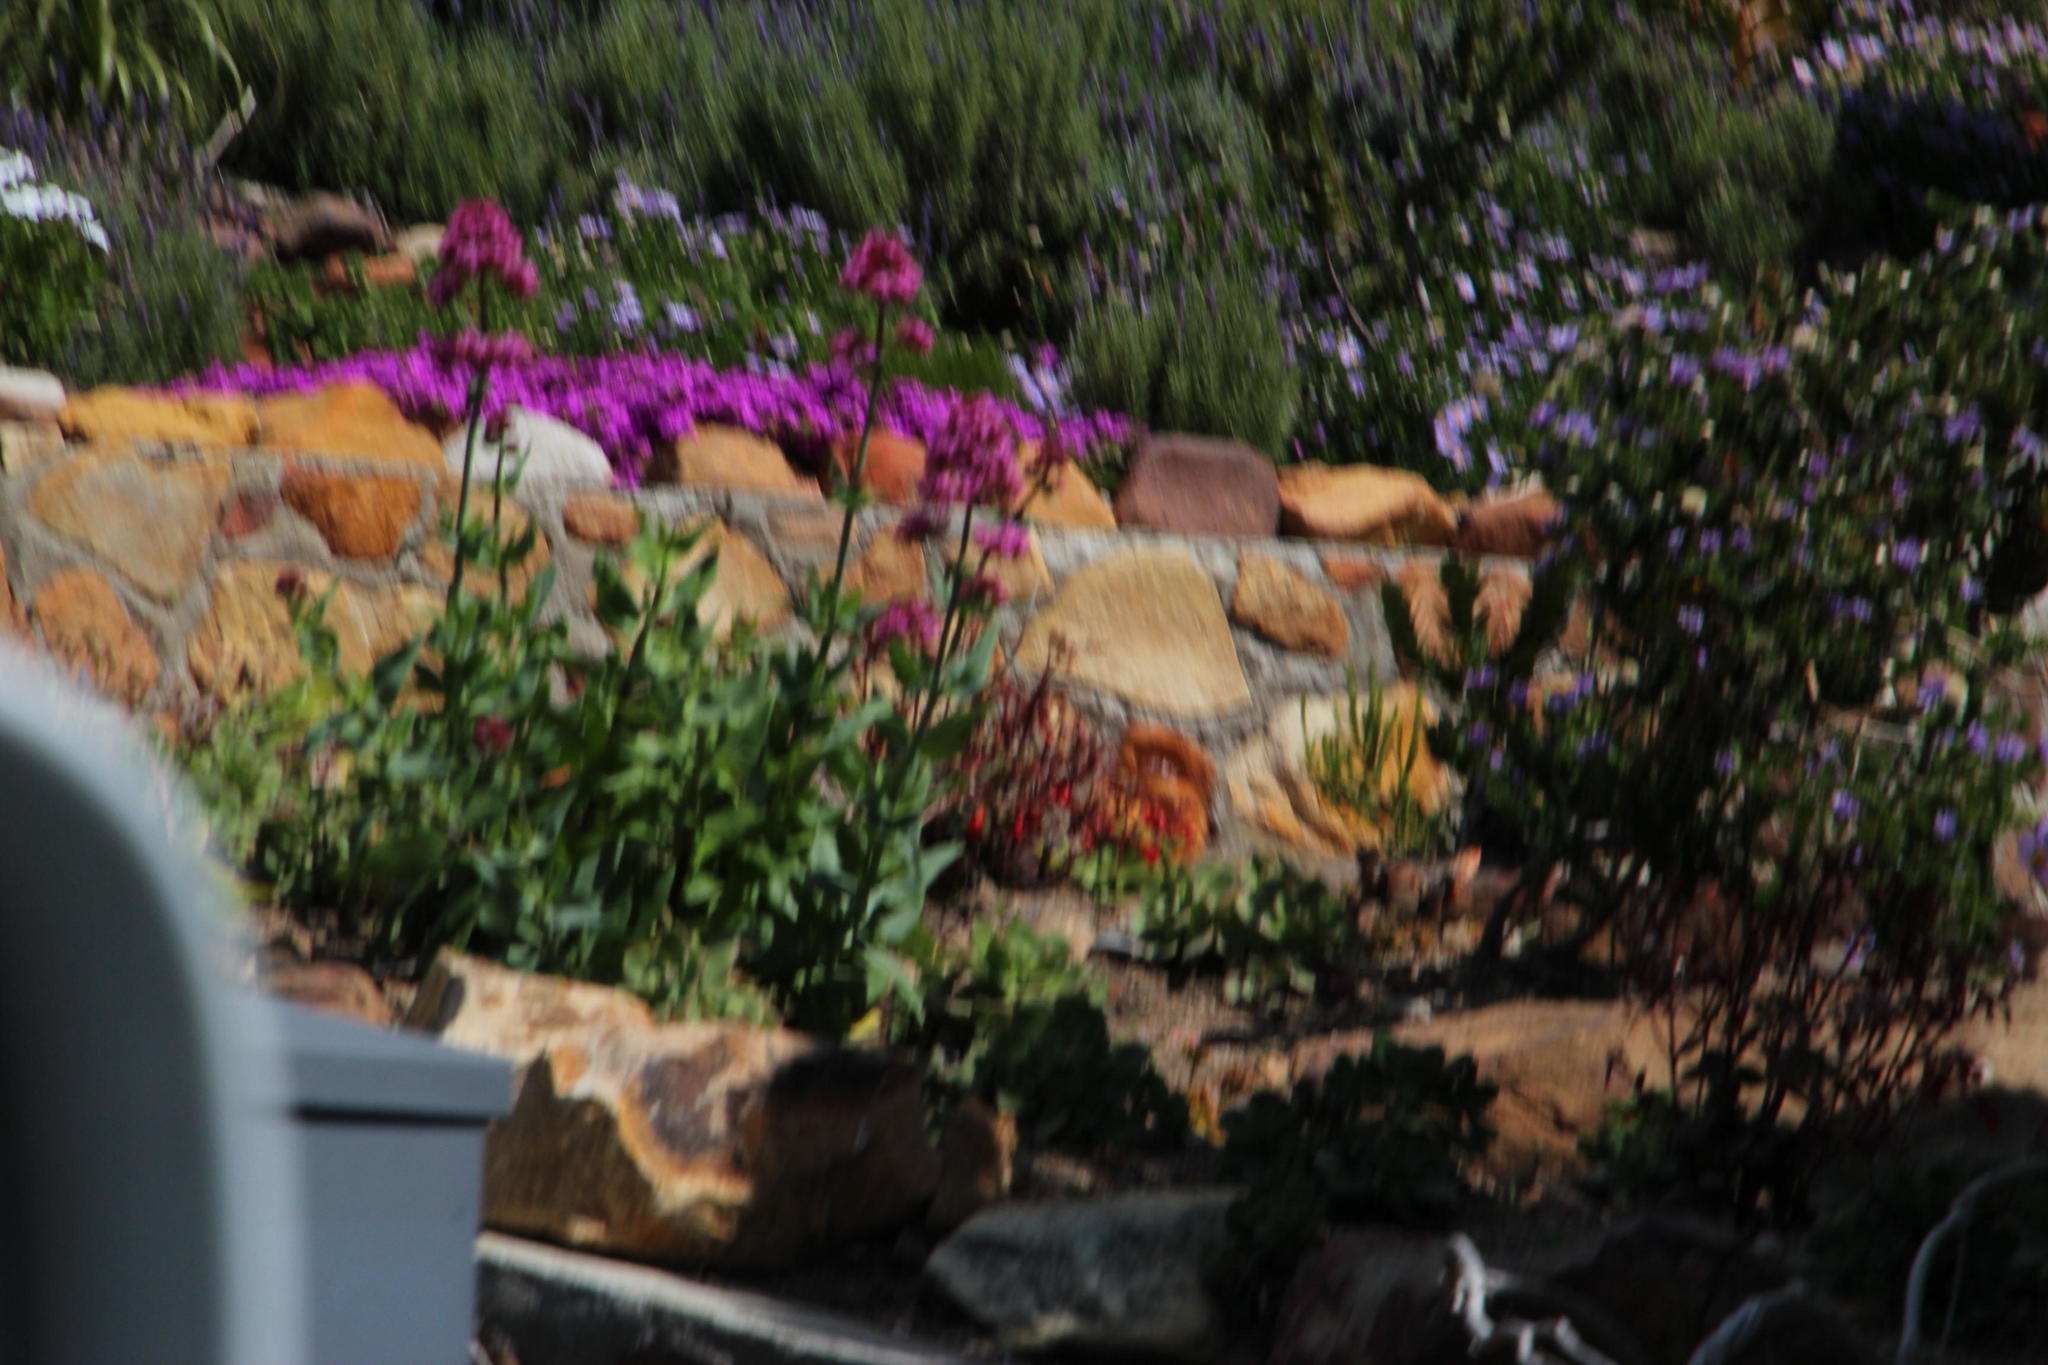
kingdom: Plantae
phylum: Tracheophyta
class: Magnoliopsida
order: Dipsacales
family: Caprifoliaceae
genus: Centranthus
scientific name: Centranthus ruber
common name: Red valerian
